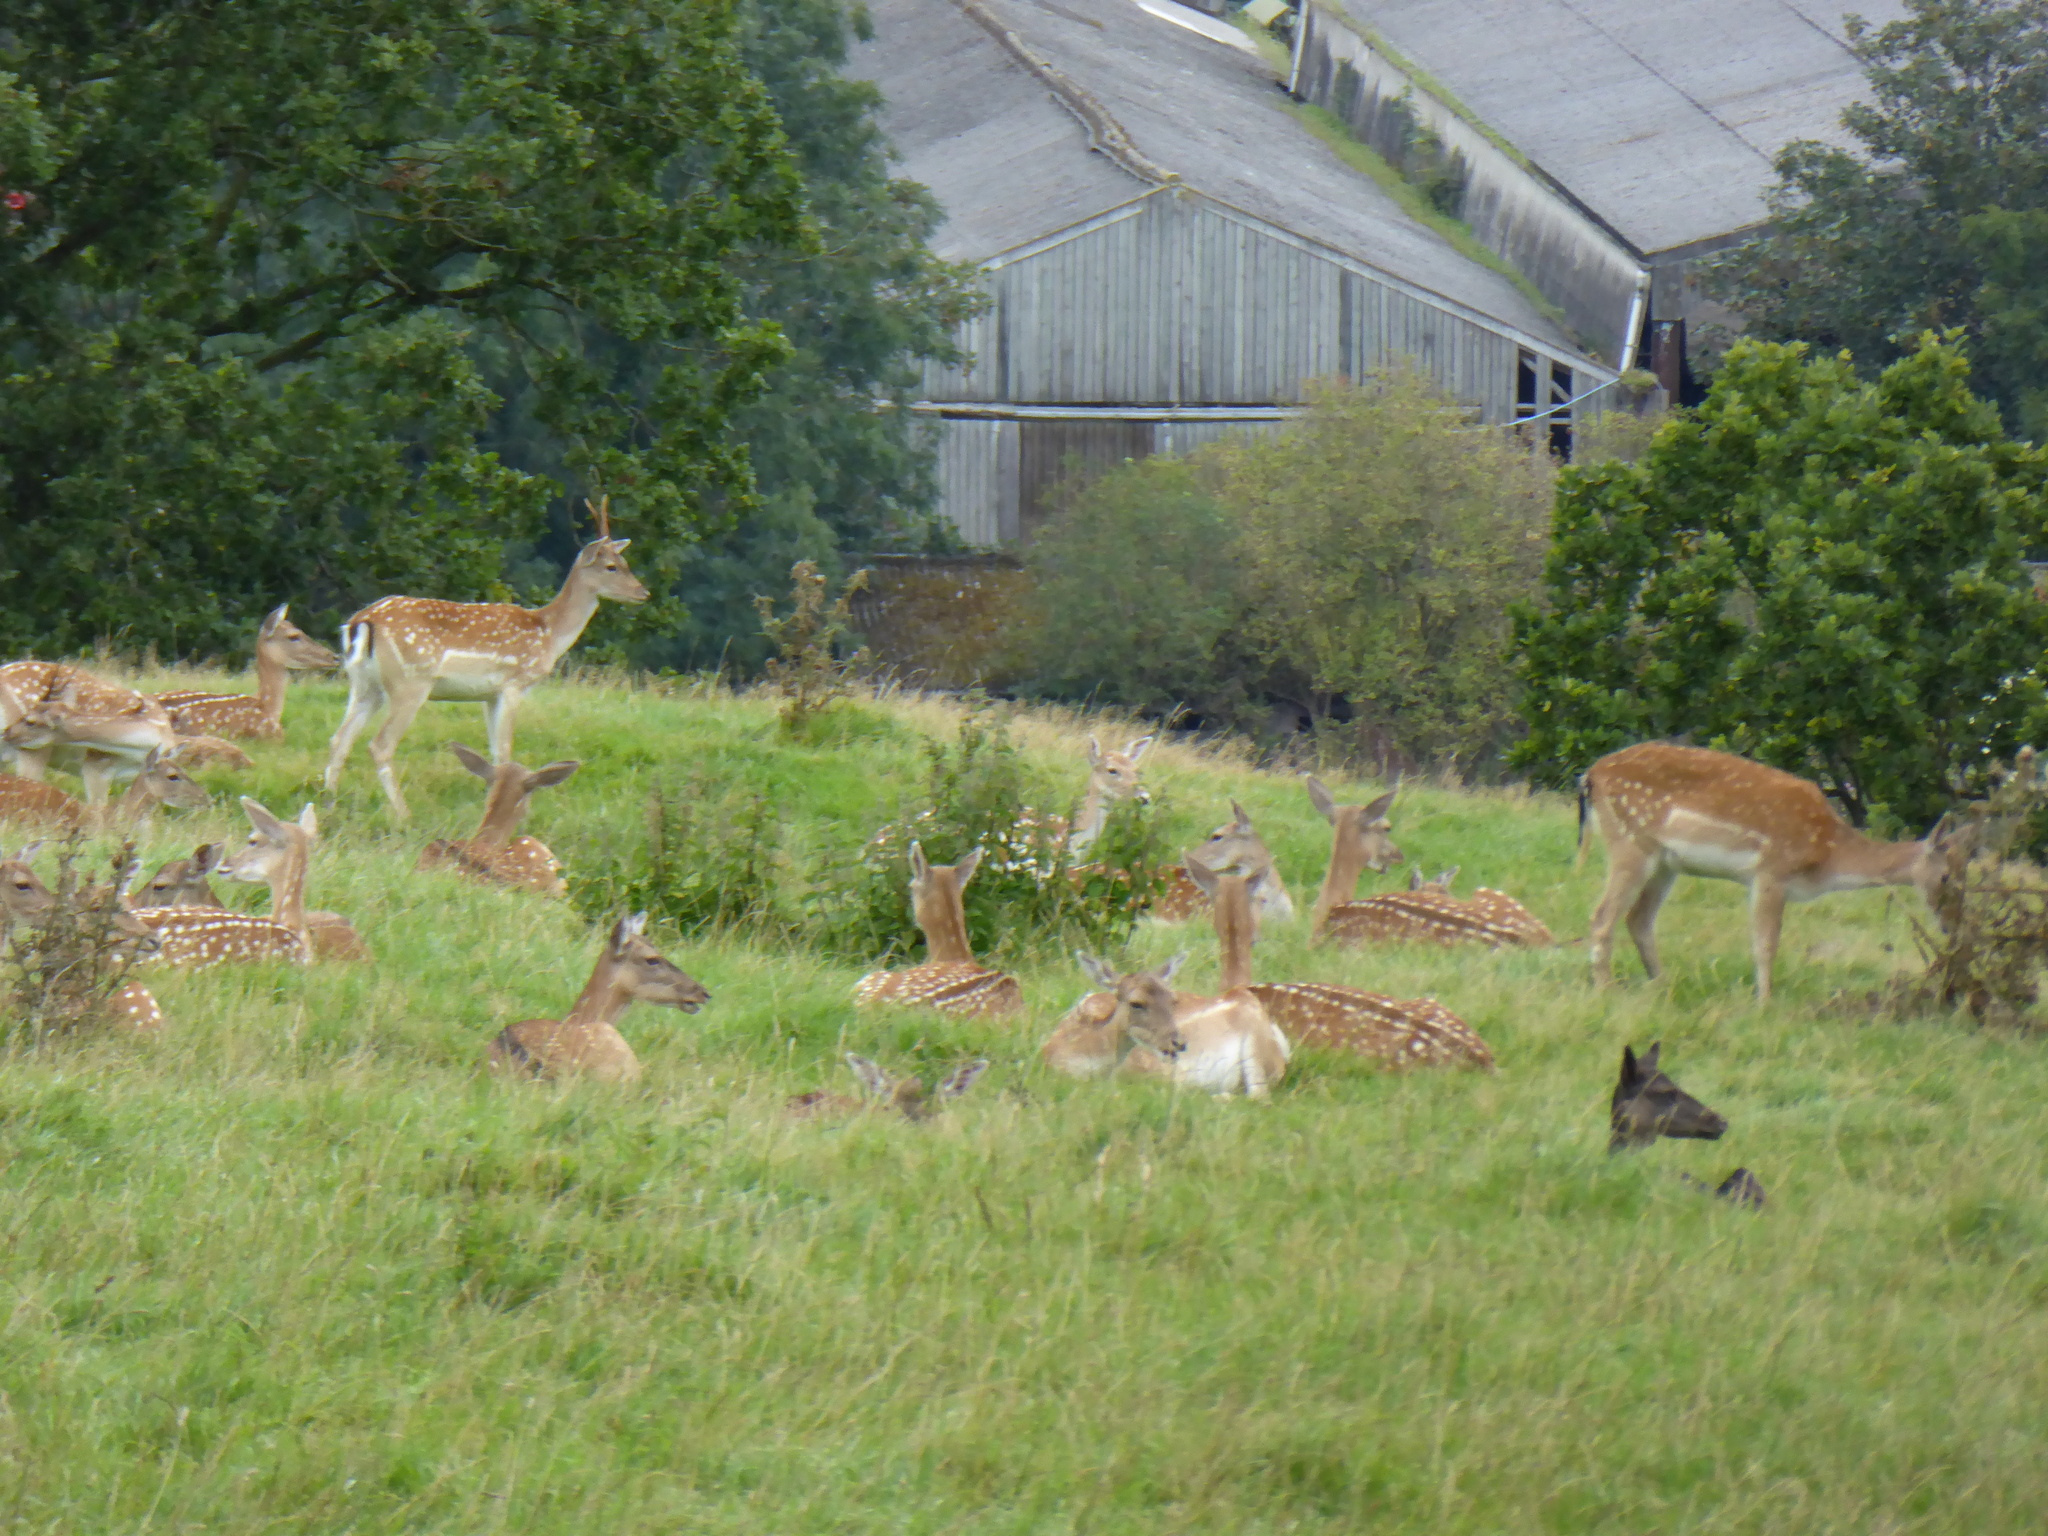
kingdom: Animalia
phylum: Chordata
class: Mammalia
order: Artiodactyla
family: Cervidae
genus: Dama
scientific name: Dama dama
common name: Fallow deer
